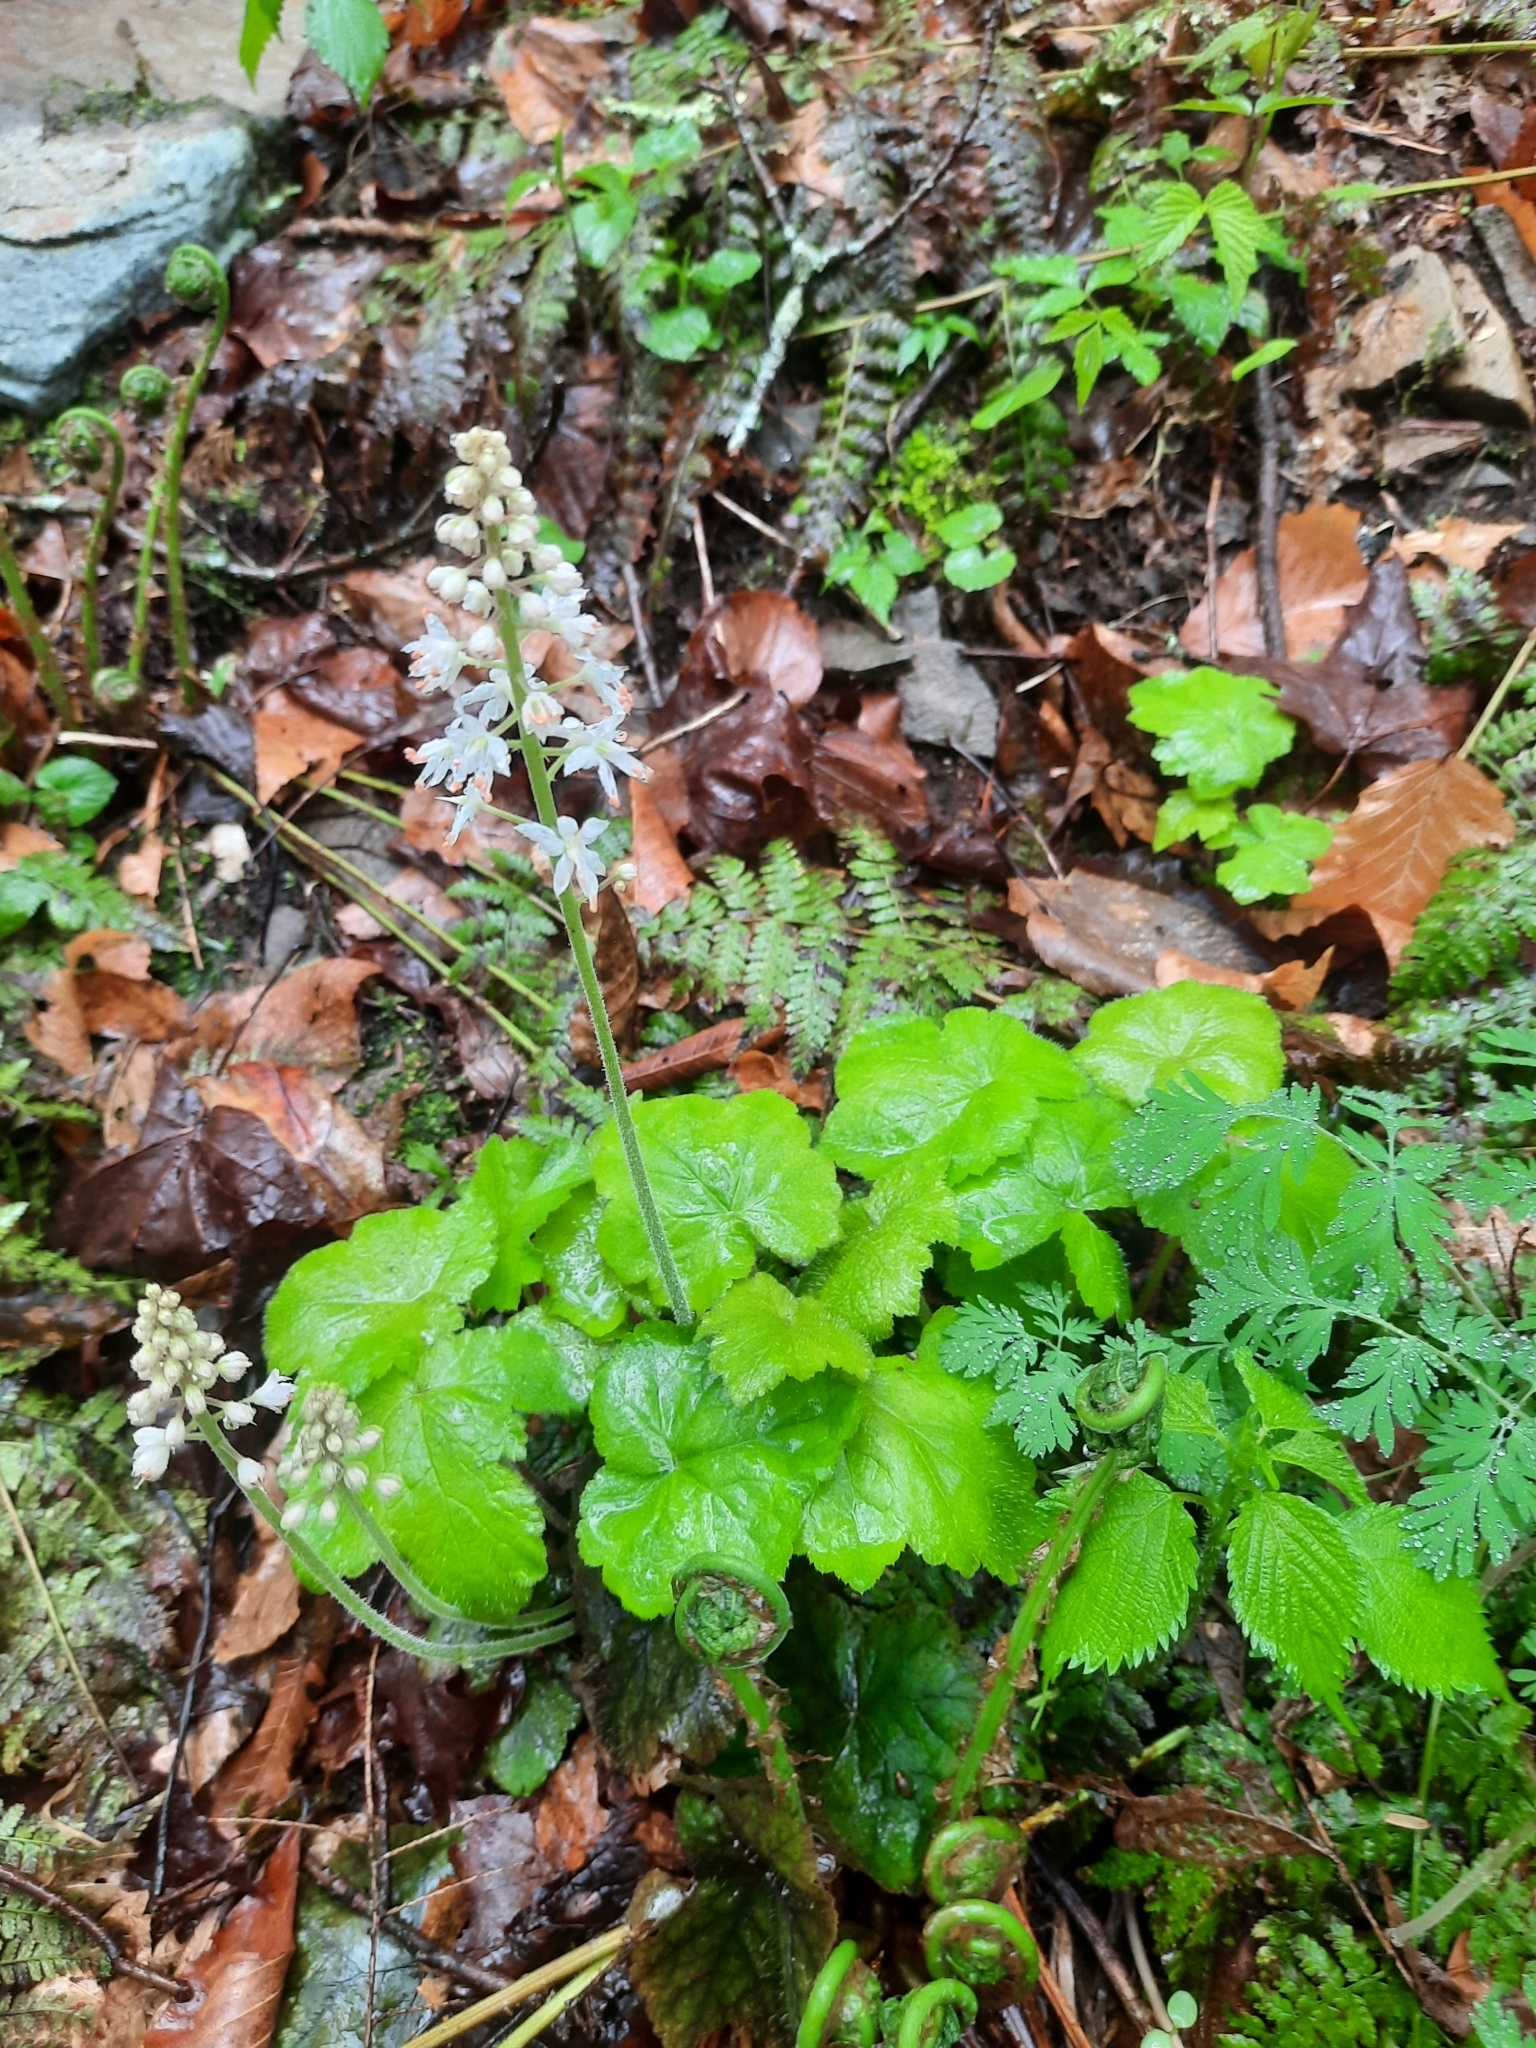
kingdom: Plantae
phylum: Tracheophyta
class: Magnoliopsida
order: Saxifragales
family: Saxifragaceae
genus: Tiarella
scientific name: Tiarella stolonifera
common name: Stoloniferous foamflower
